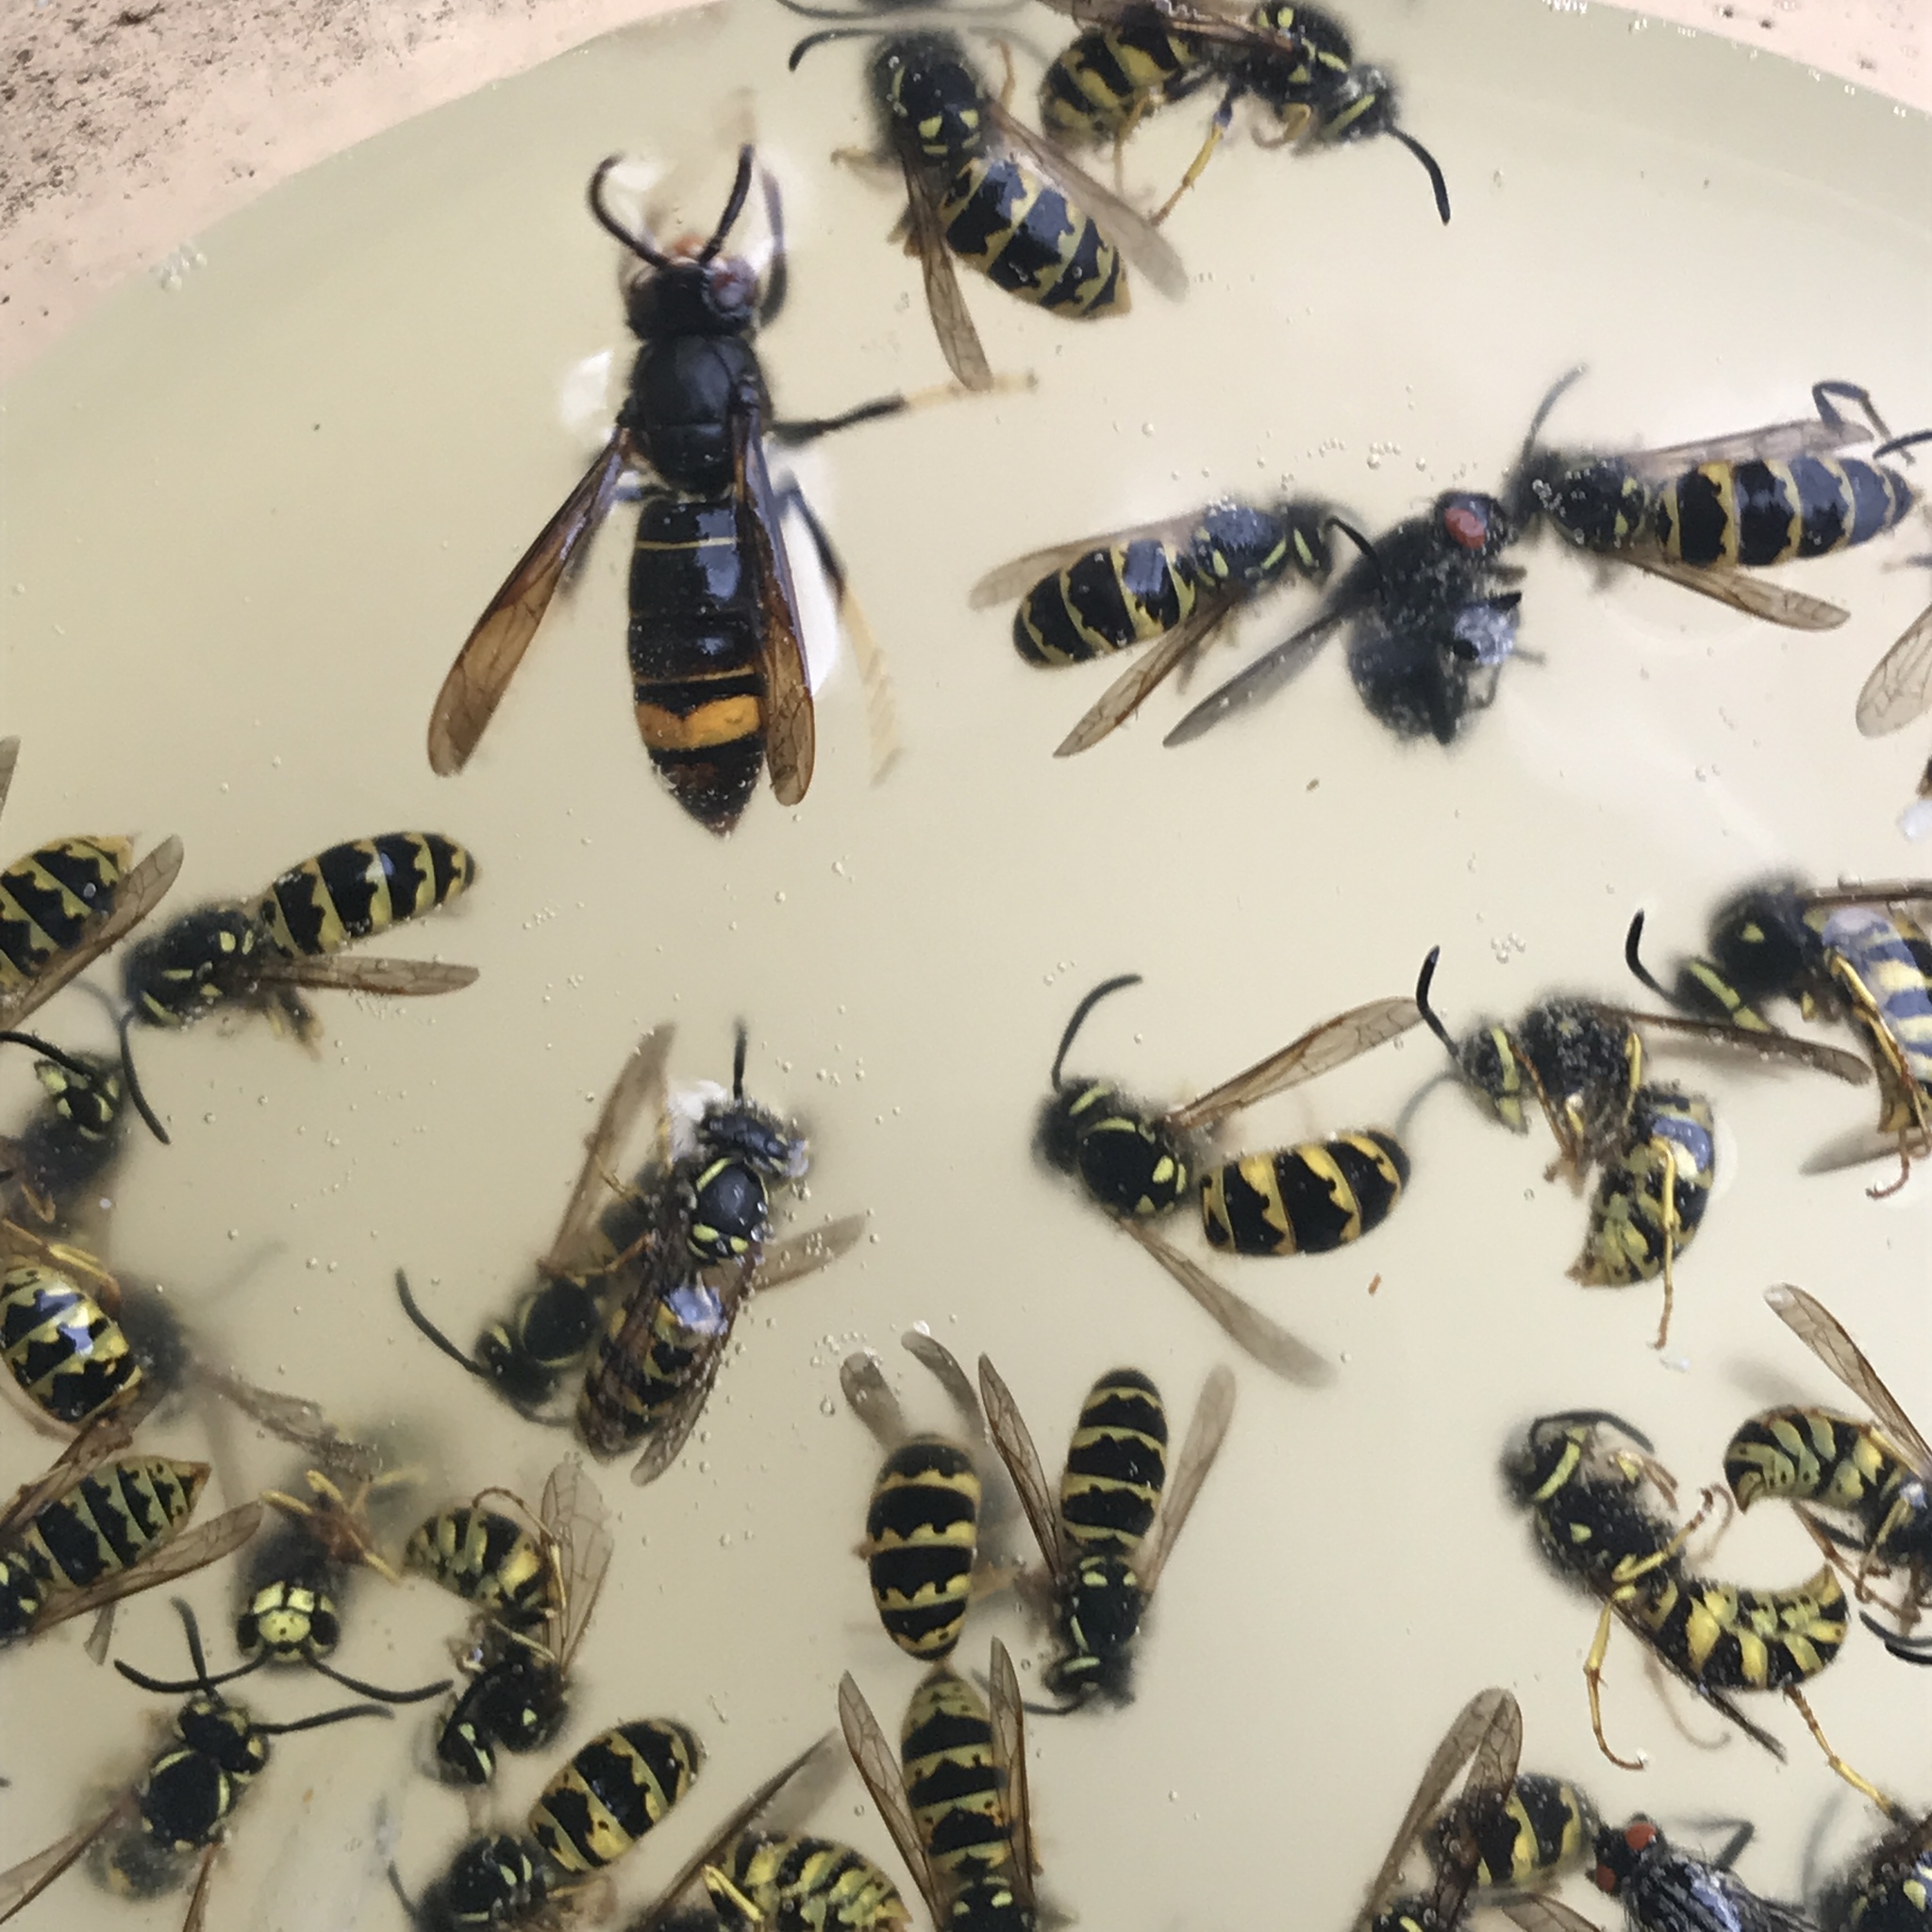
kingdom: Animalia
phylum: Arthropoda
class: Insecta
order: Hymenoptera
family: Vespidae
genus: Vespa
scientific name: Vespa velutina
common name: Asian hornet
